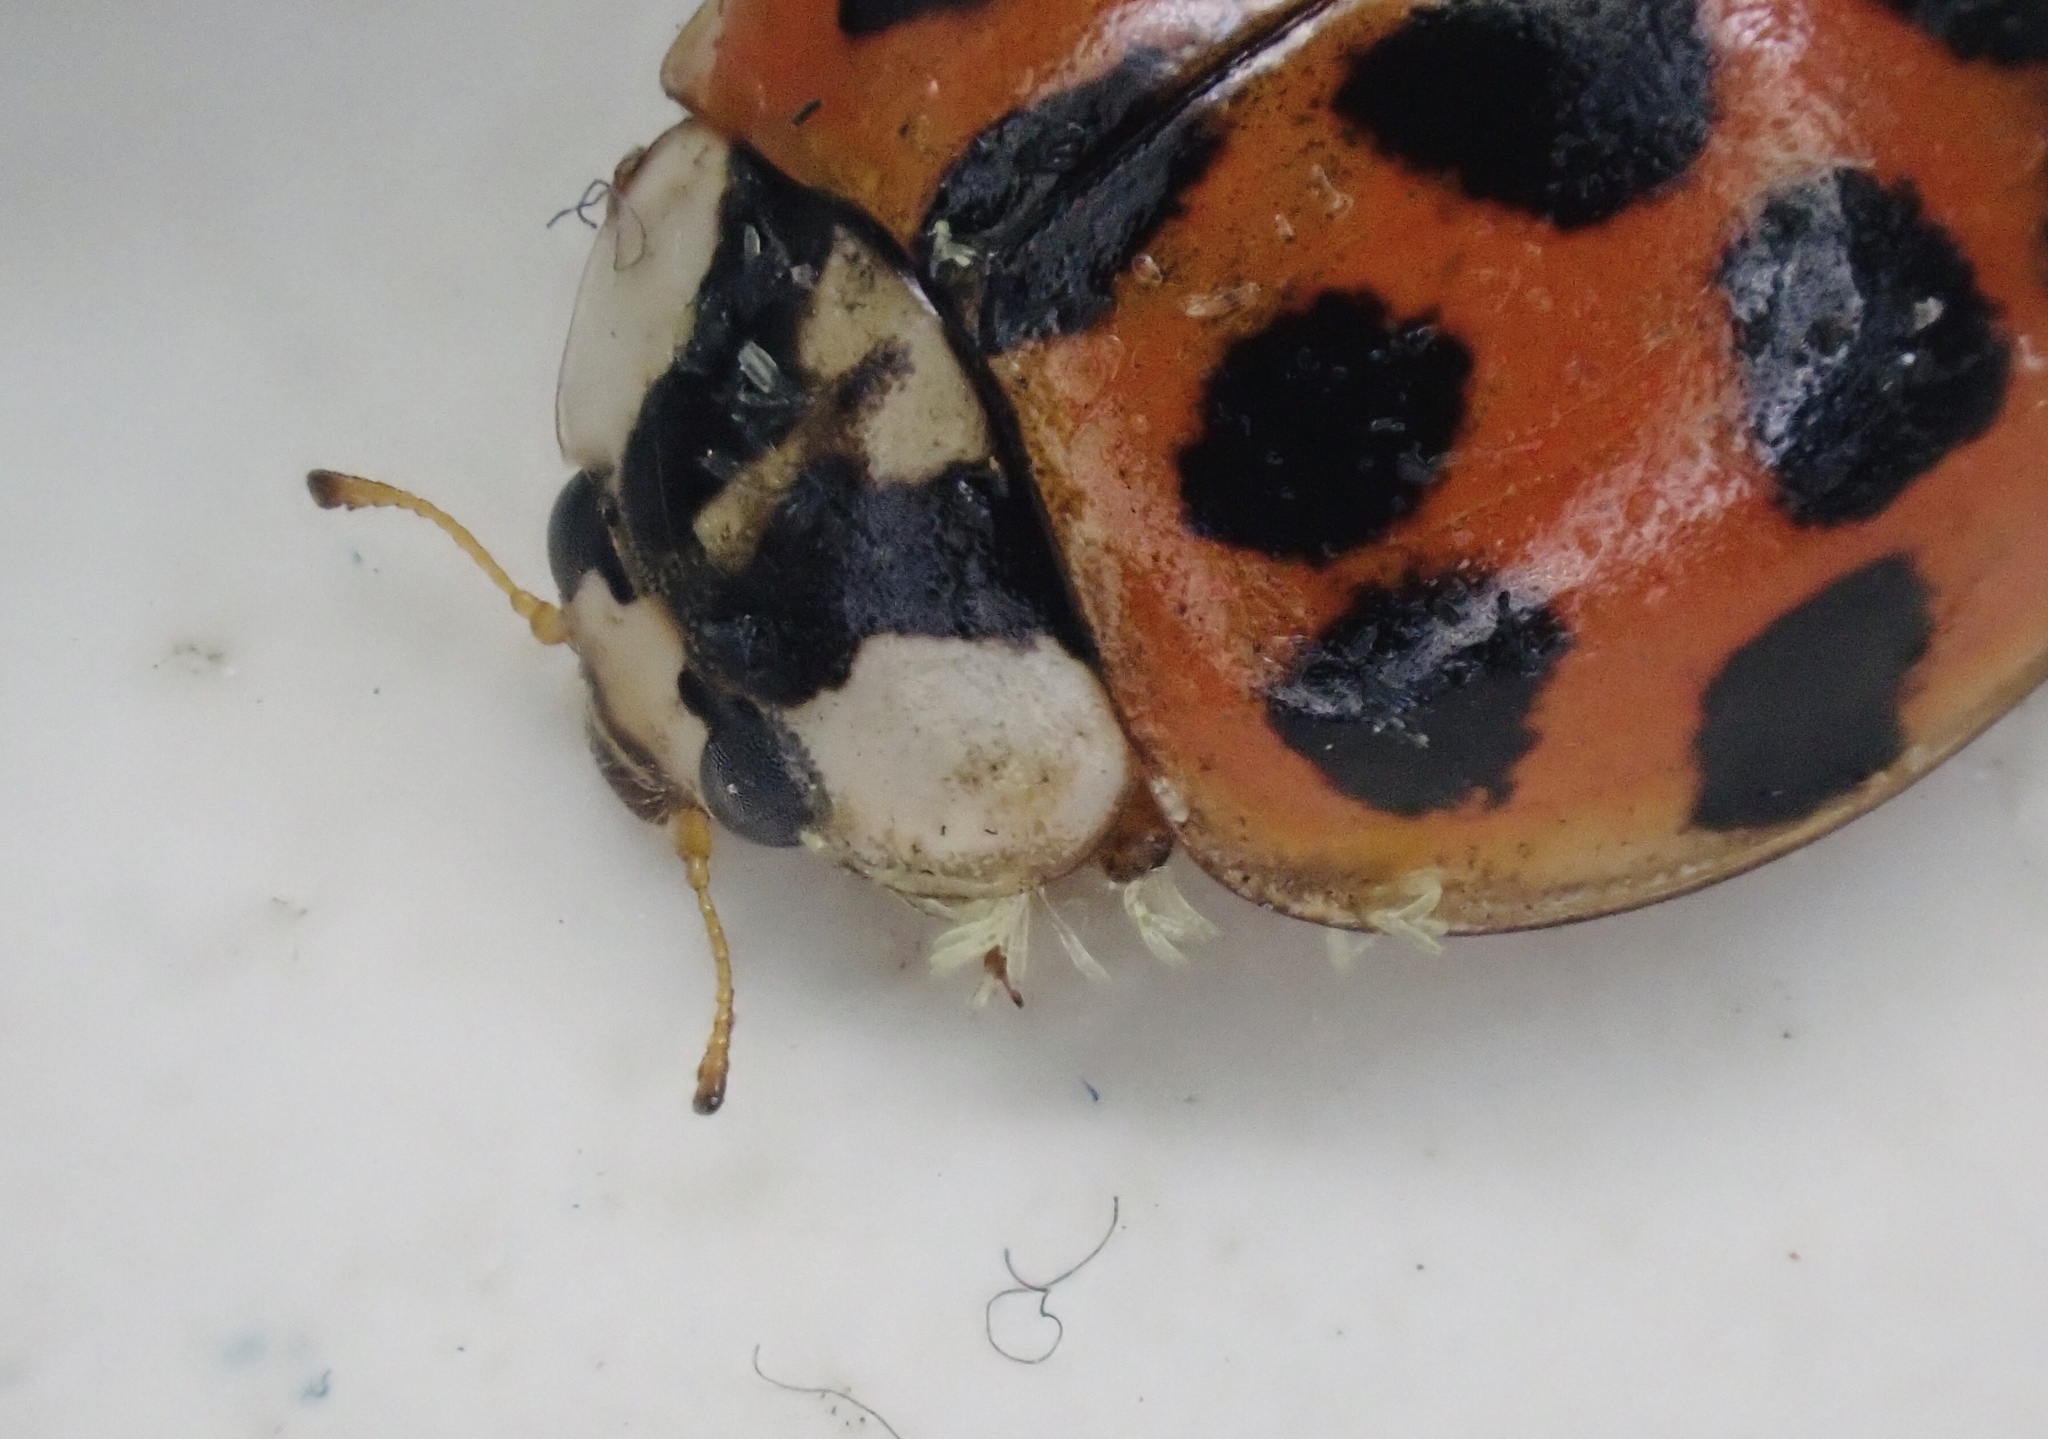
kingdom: Fungi
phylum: Ascomycota
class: Laboulbeniomycetes
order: Laboulbeniales
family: Laboulbeniaceae
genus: Hesperomyces
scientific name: Hesperomyces harmoniae
